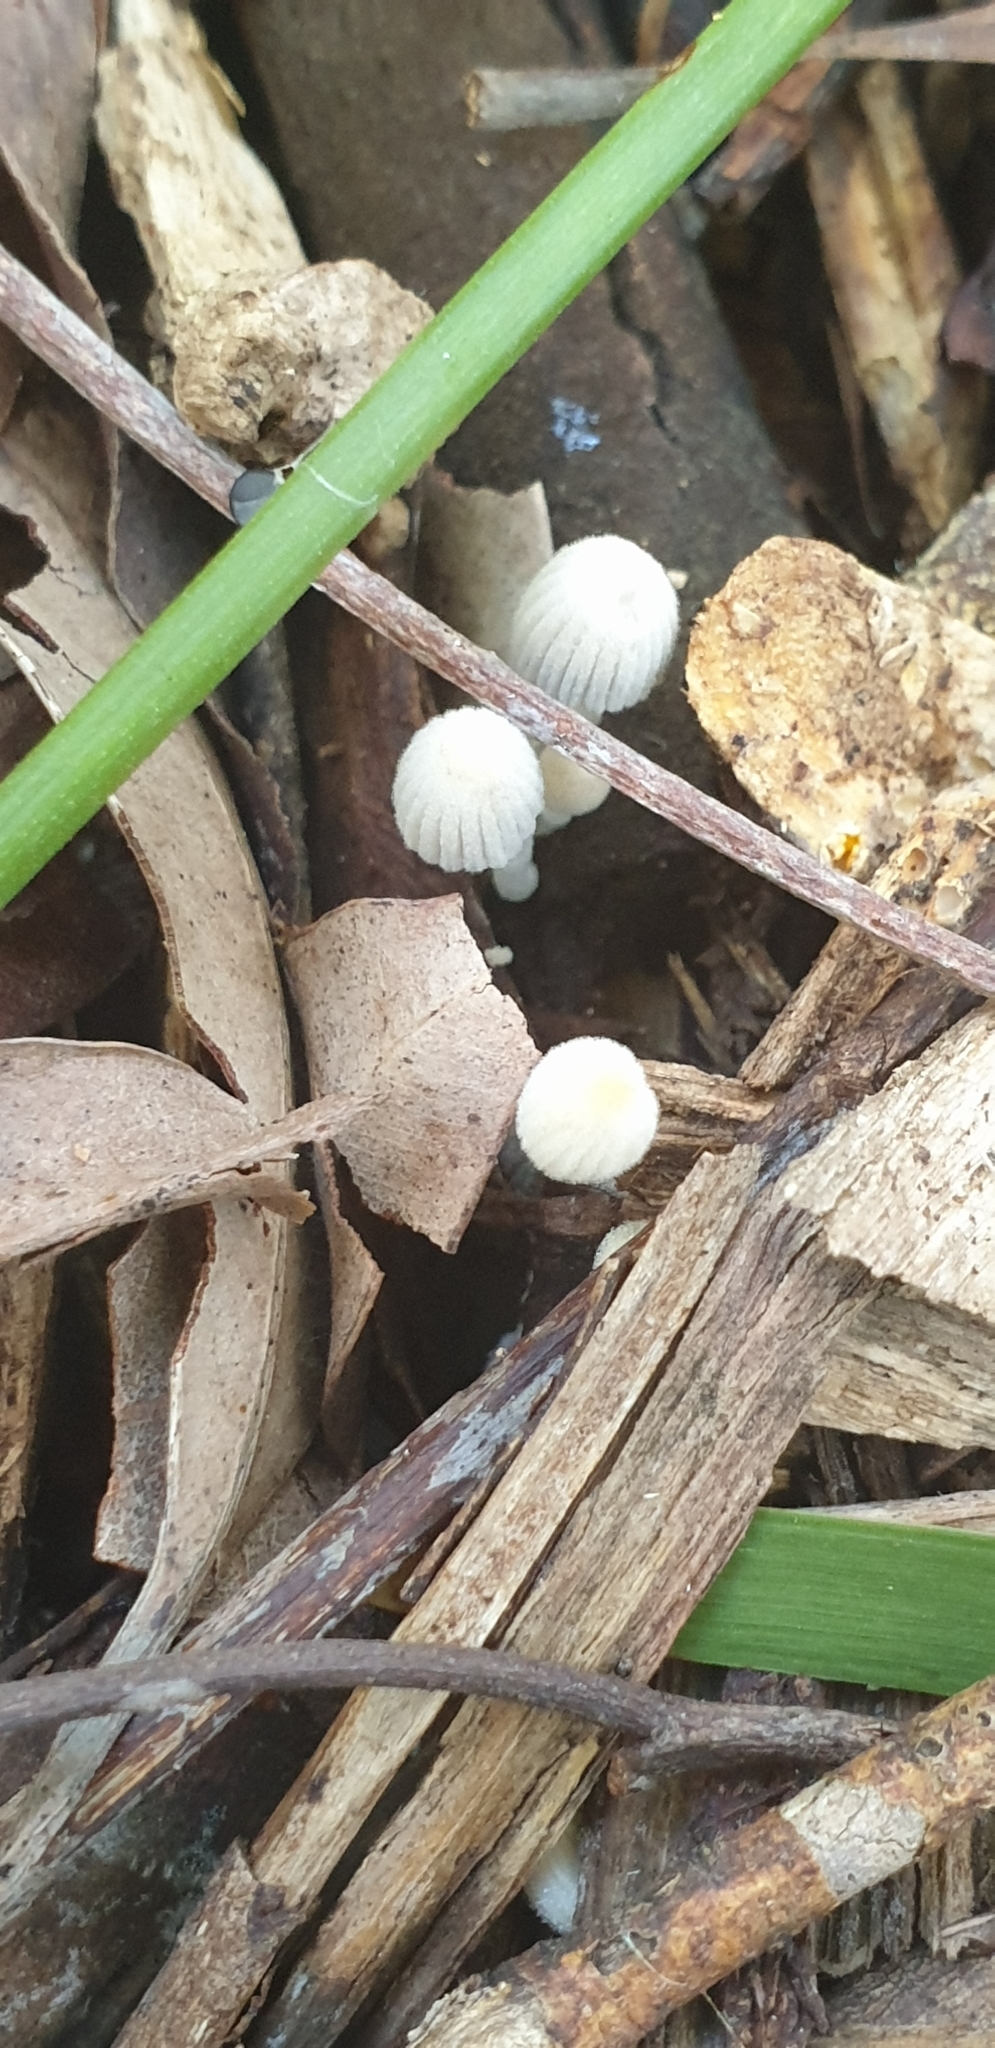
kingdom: Fungi
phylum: Basidiomycota
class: Agaricomycetes
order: Agaricales
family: Psathyrellaceae
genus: Coprinellus
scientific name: Coprinellus disseminatus
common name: Fairies' bonnets
